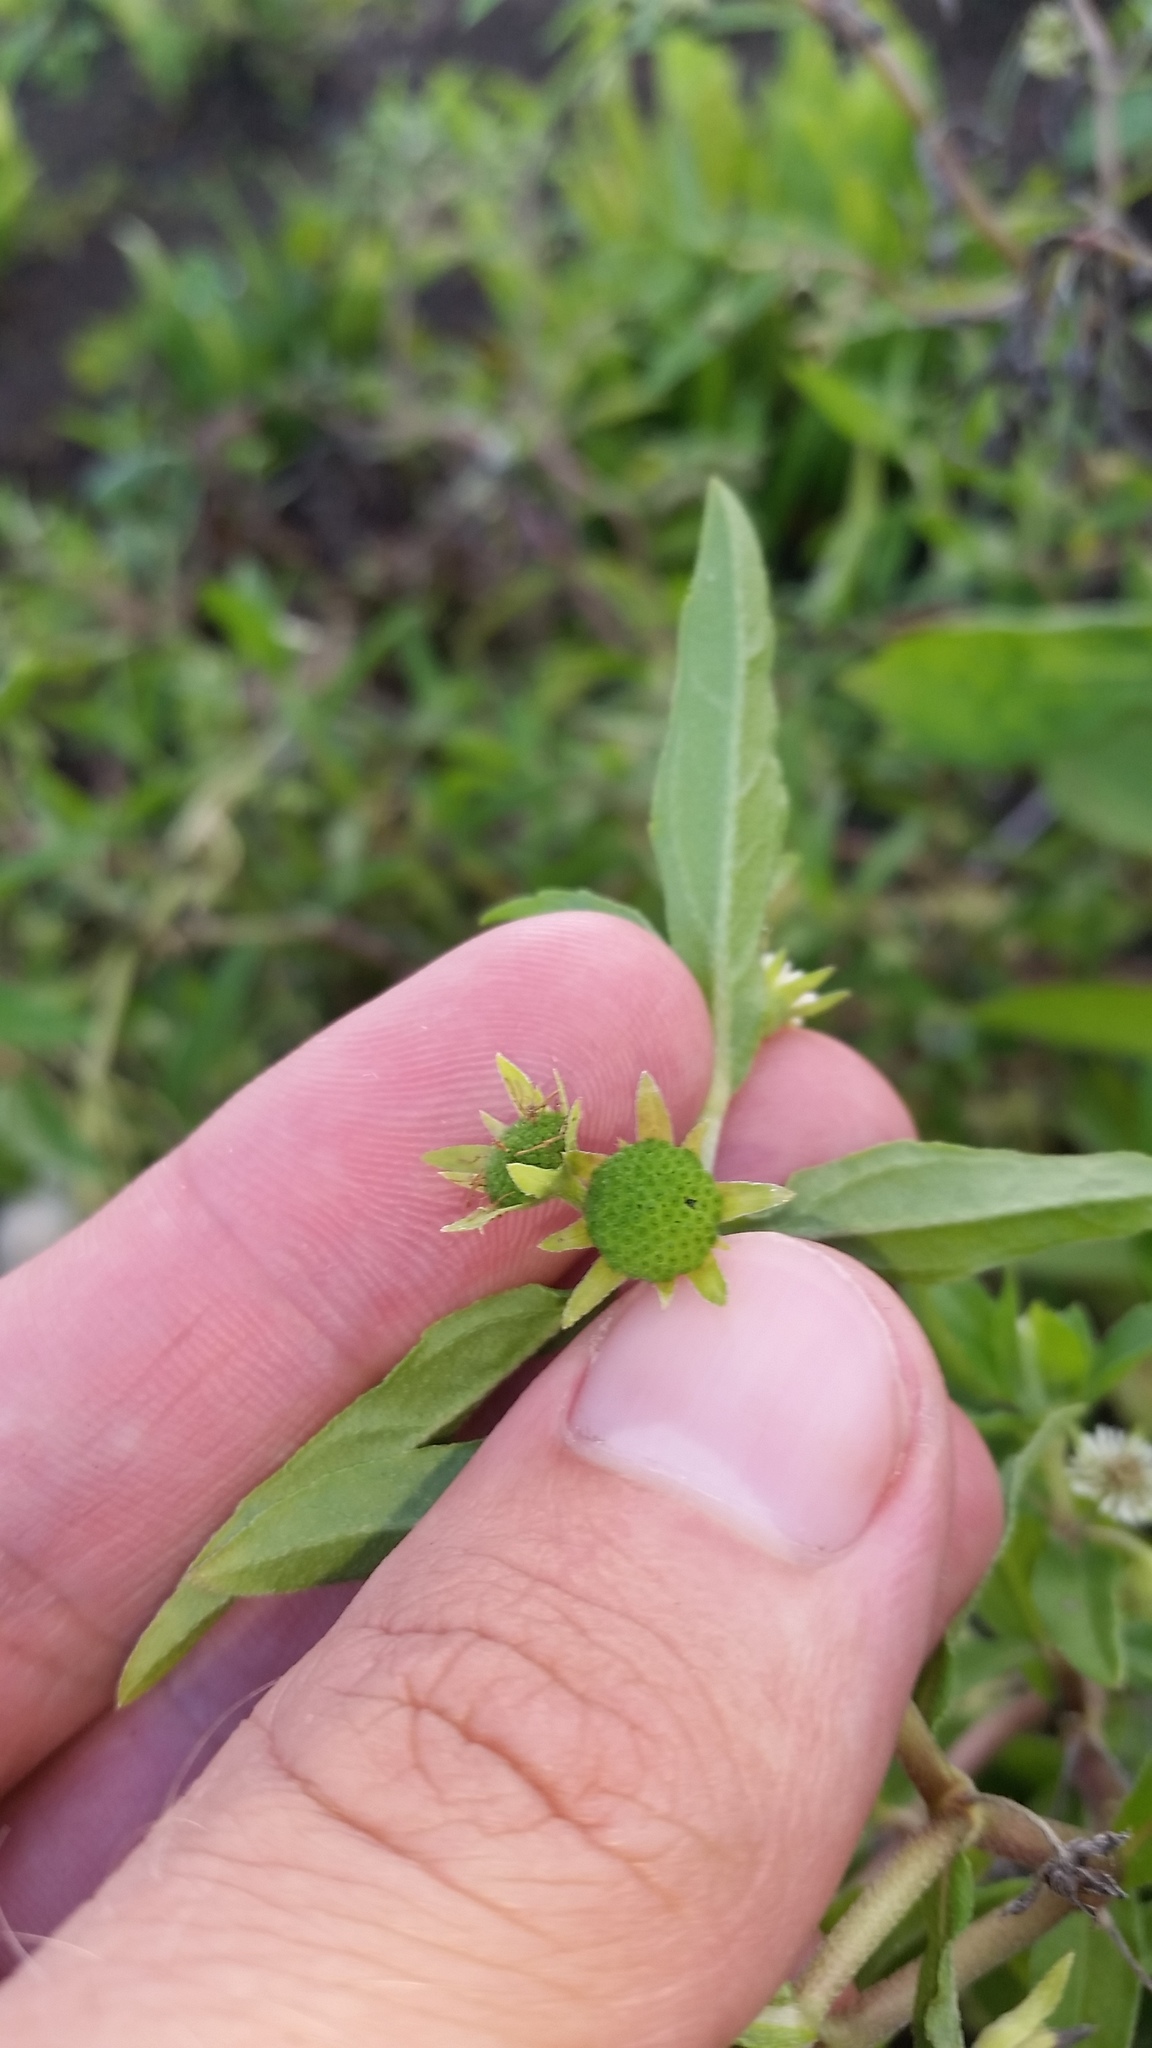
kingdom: Plantae
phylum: Tracheophyta
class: Magnoliopsida
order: Asterales
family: Asteraceae
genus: Eclipta
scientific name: Eclipta prostrata
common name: False daisy
